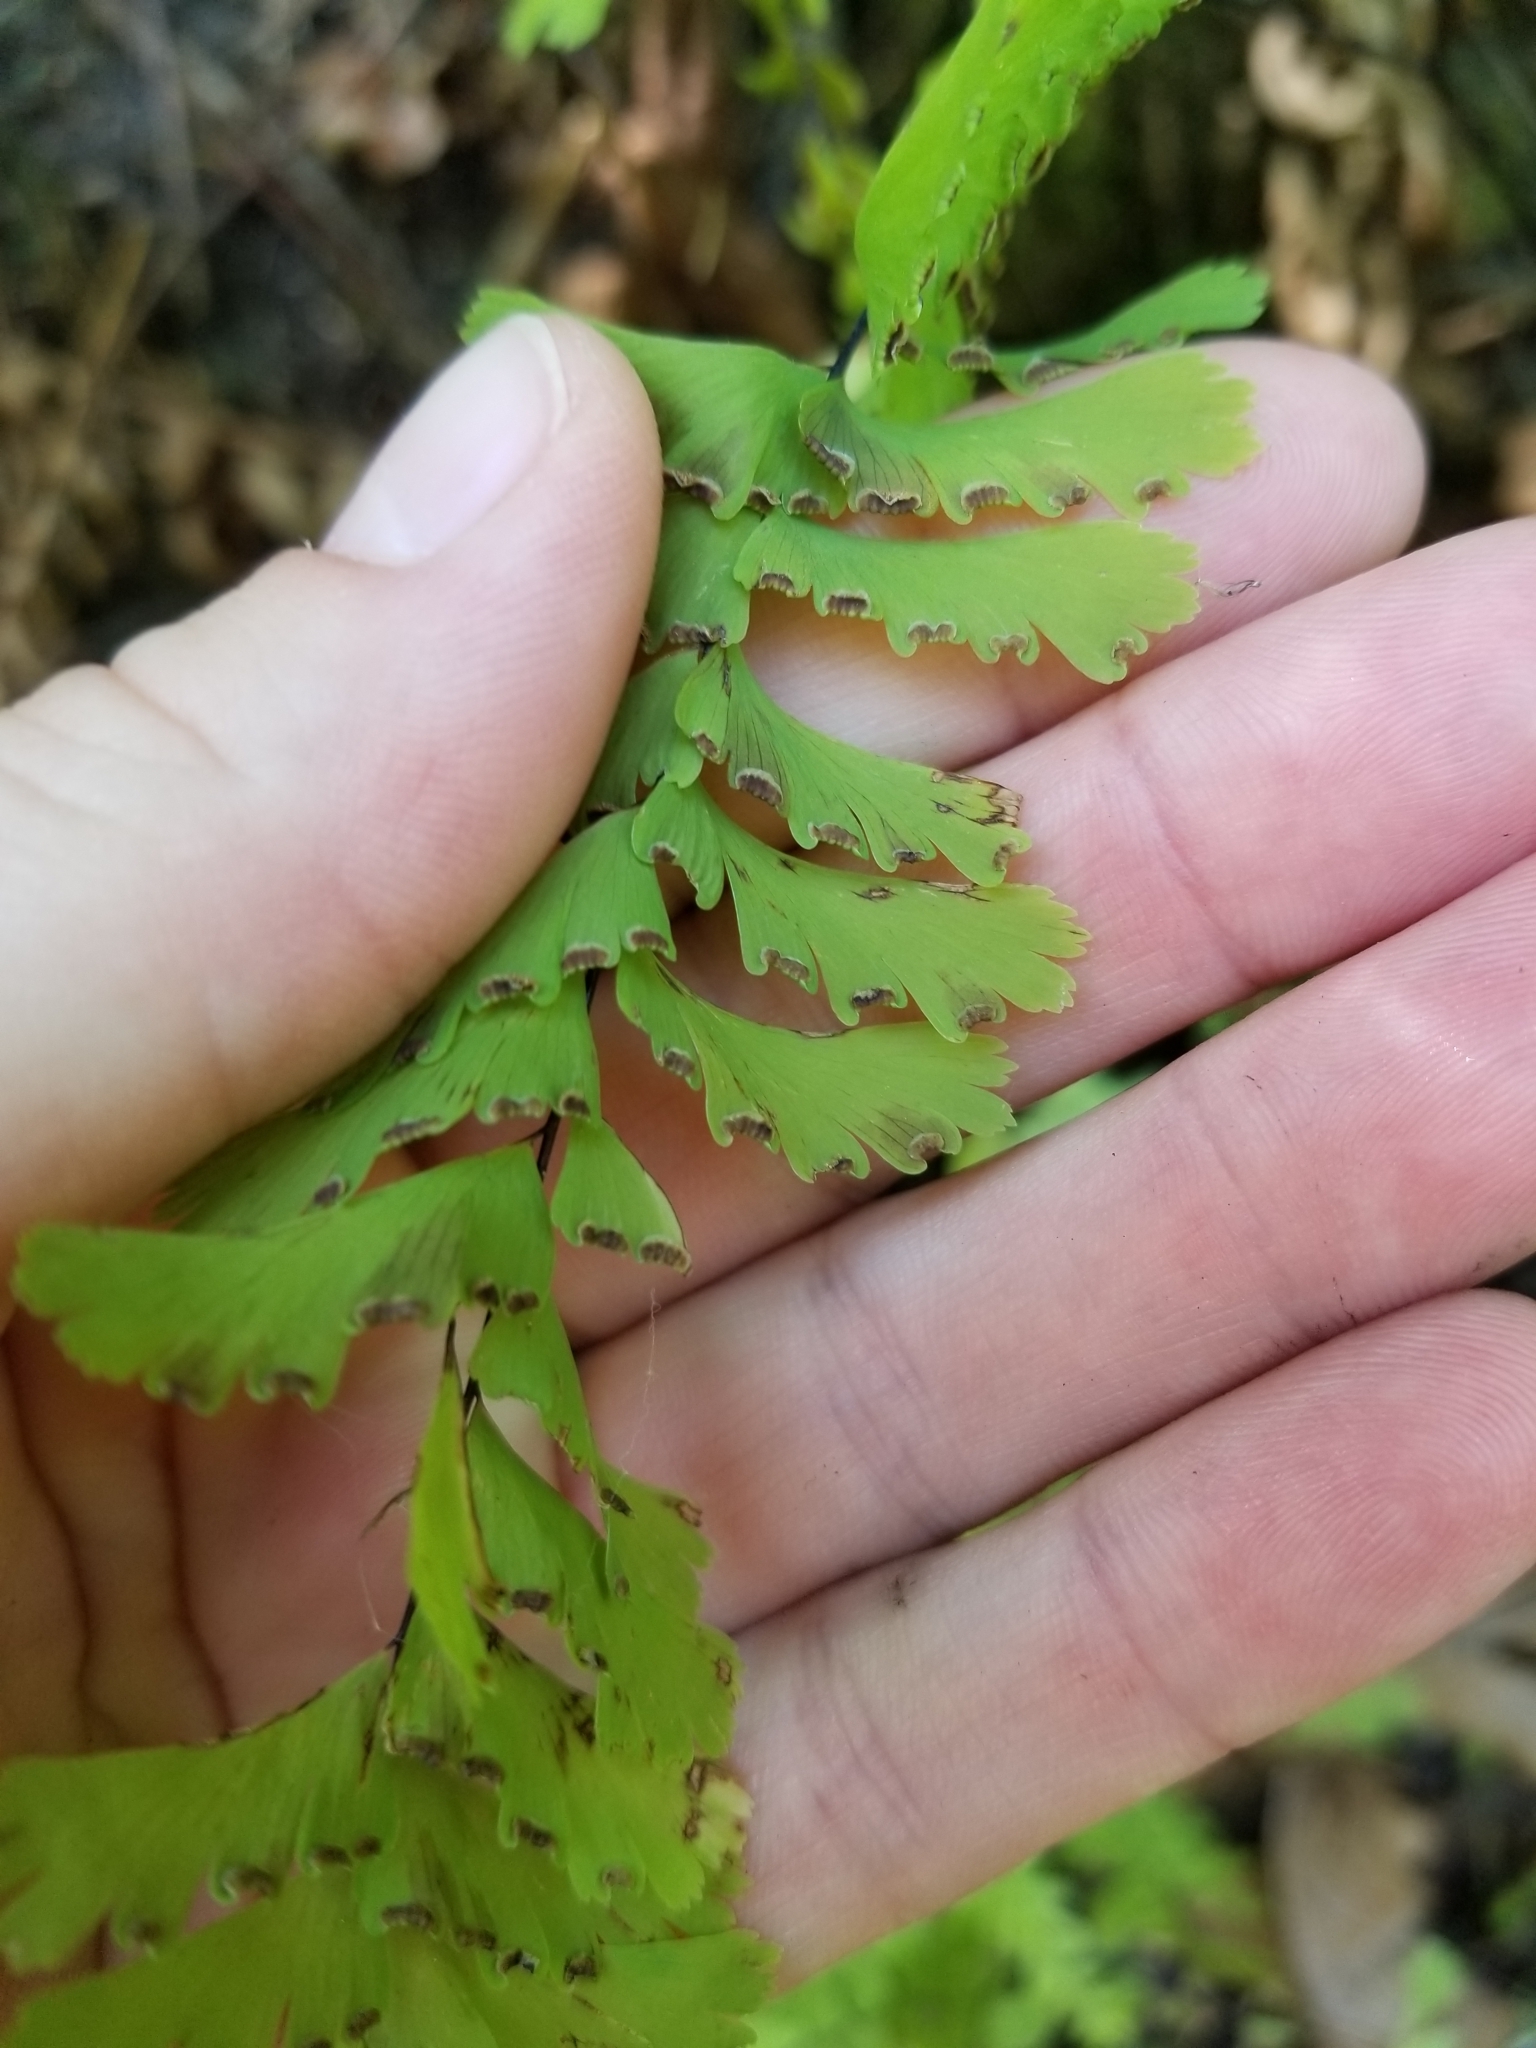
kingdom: Plantae
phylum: Tracheophyta
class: Polypodiopsida
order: Polypodiales
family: Pteridaceae
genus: Adiantum
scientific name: Adiantum aleuticum
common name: Aleutian maidenhair fern
